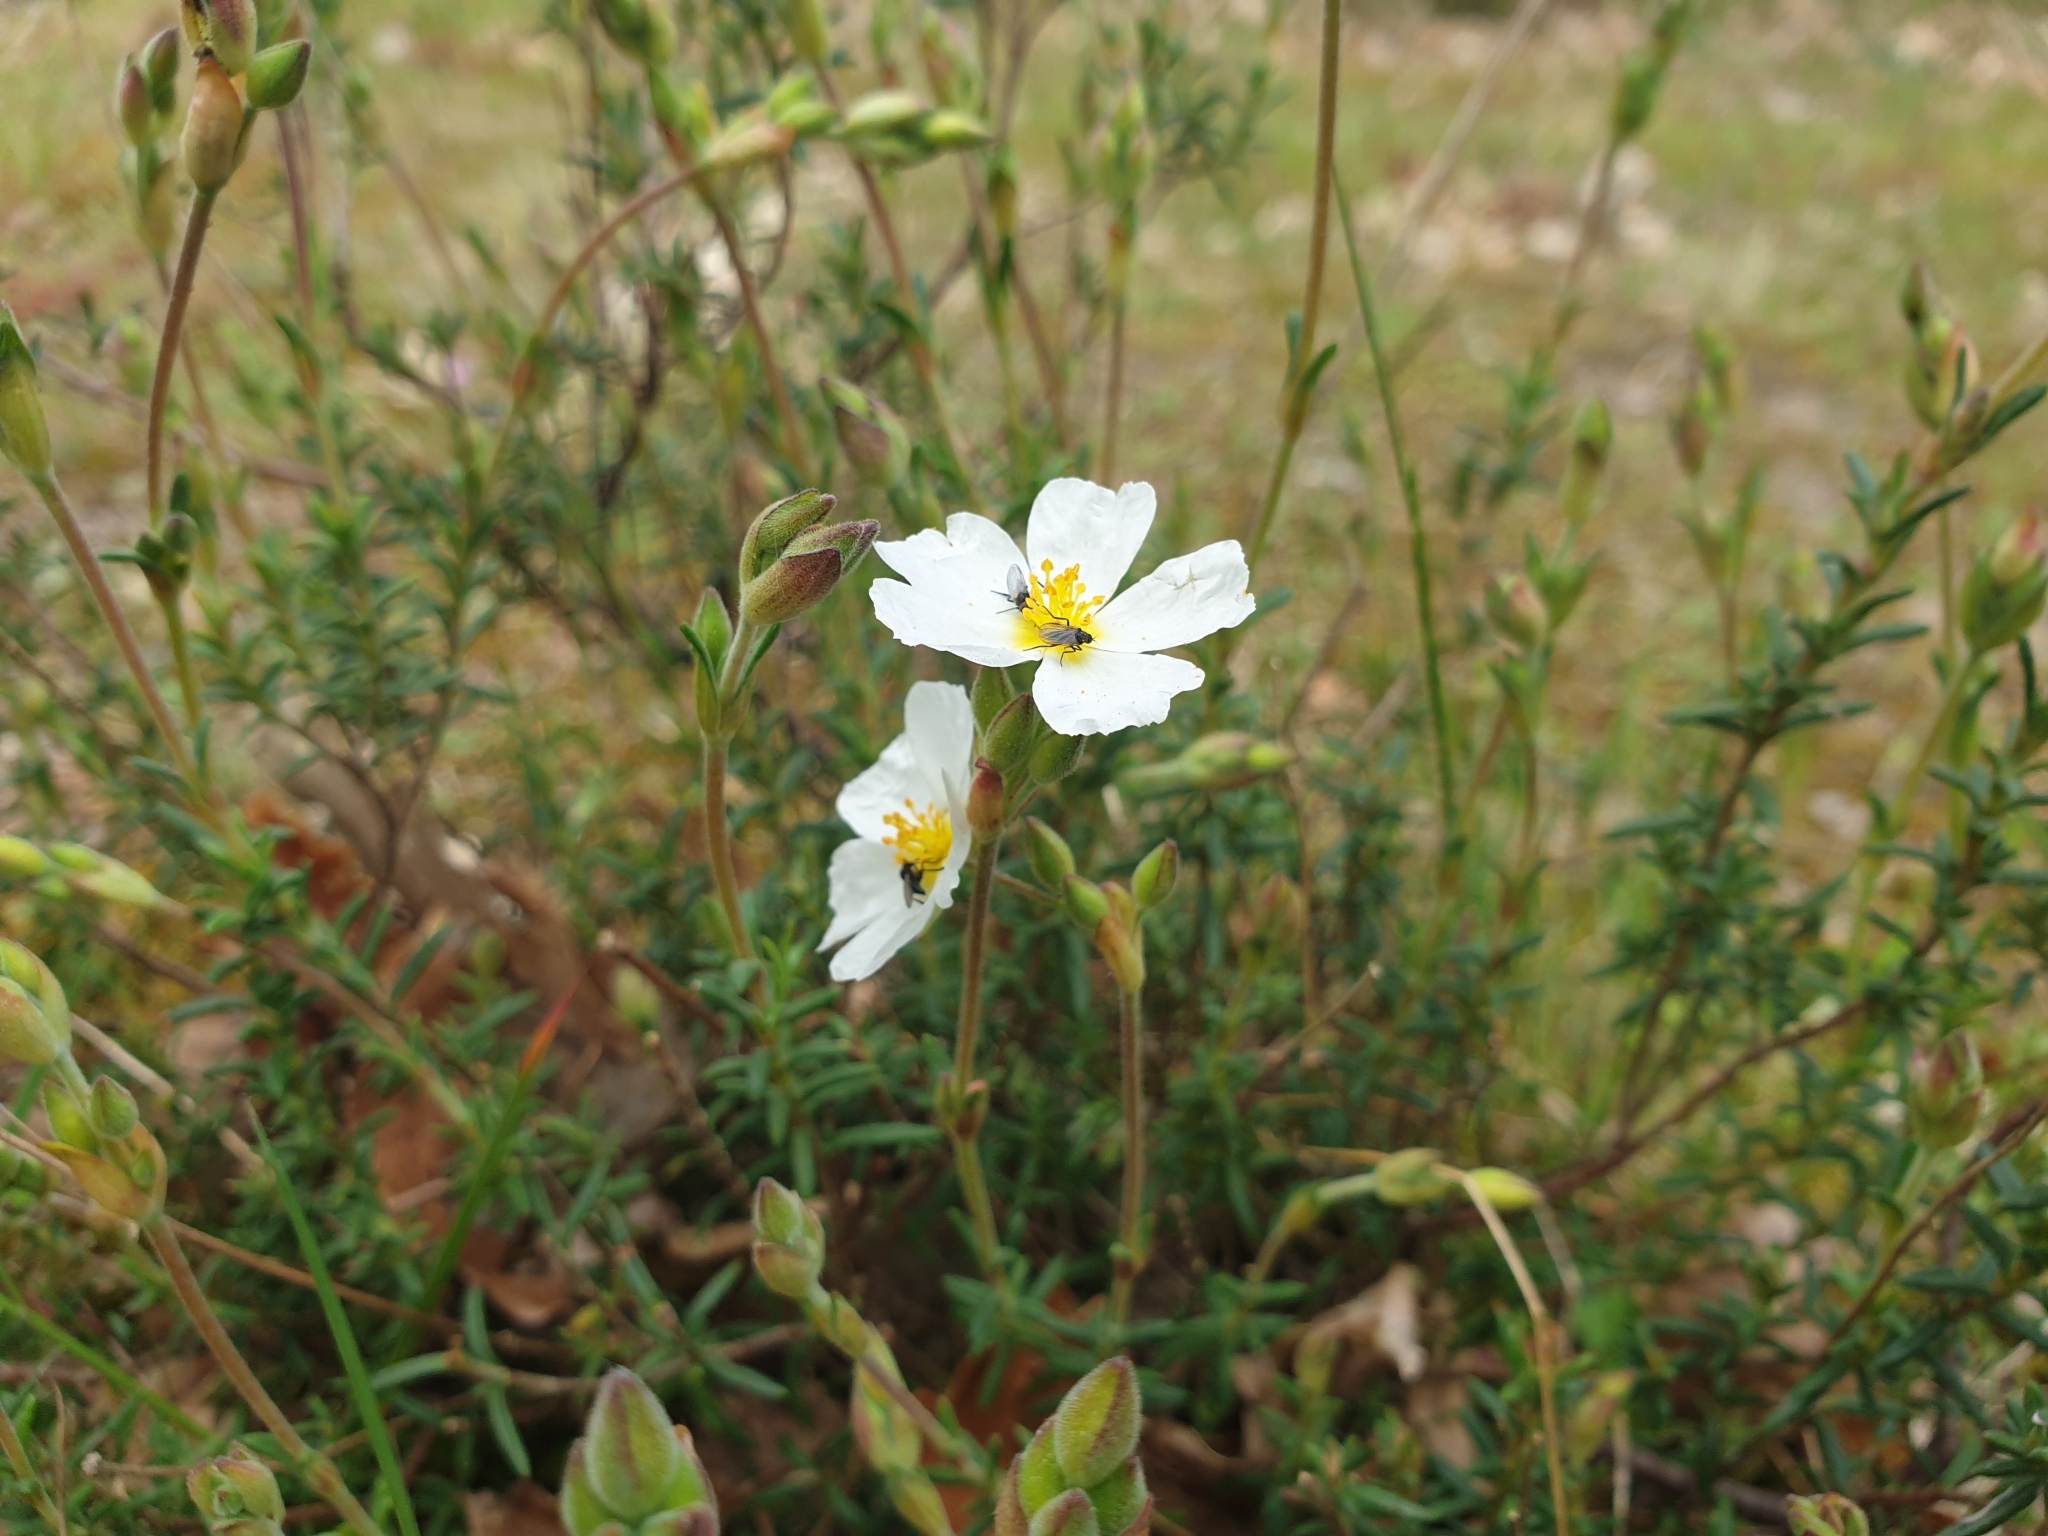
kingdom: Plantae
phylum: Tracheophyta
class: Magnoliopsida
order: Malvales
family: Cistaceae
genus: Halimium
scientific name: Halimium umbellatum
